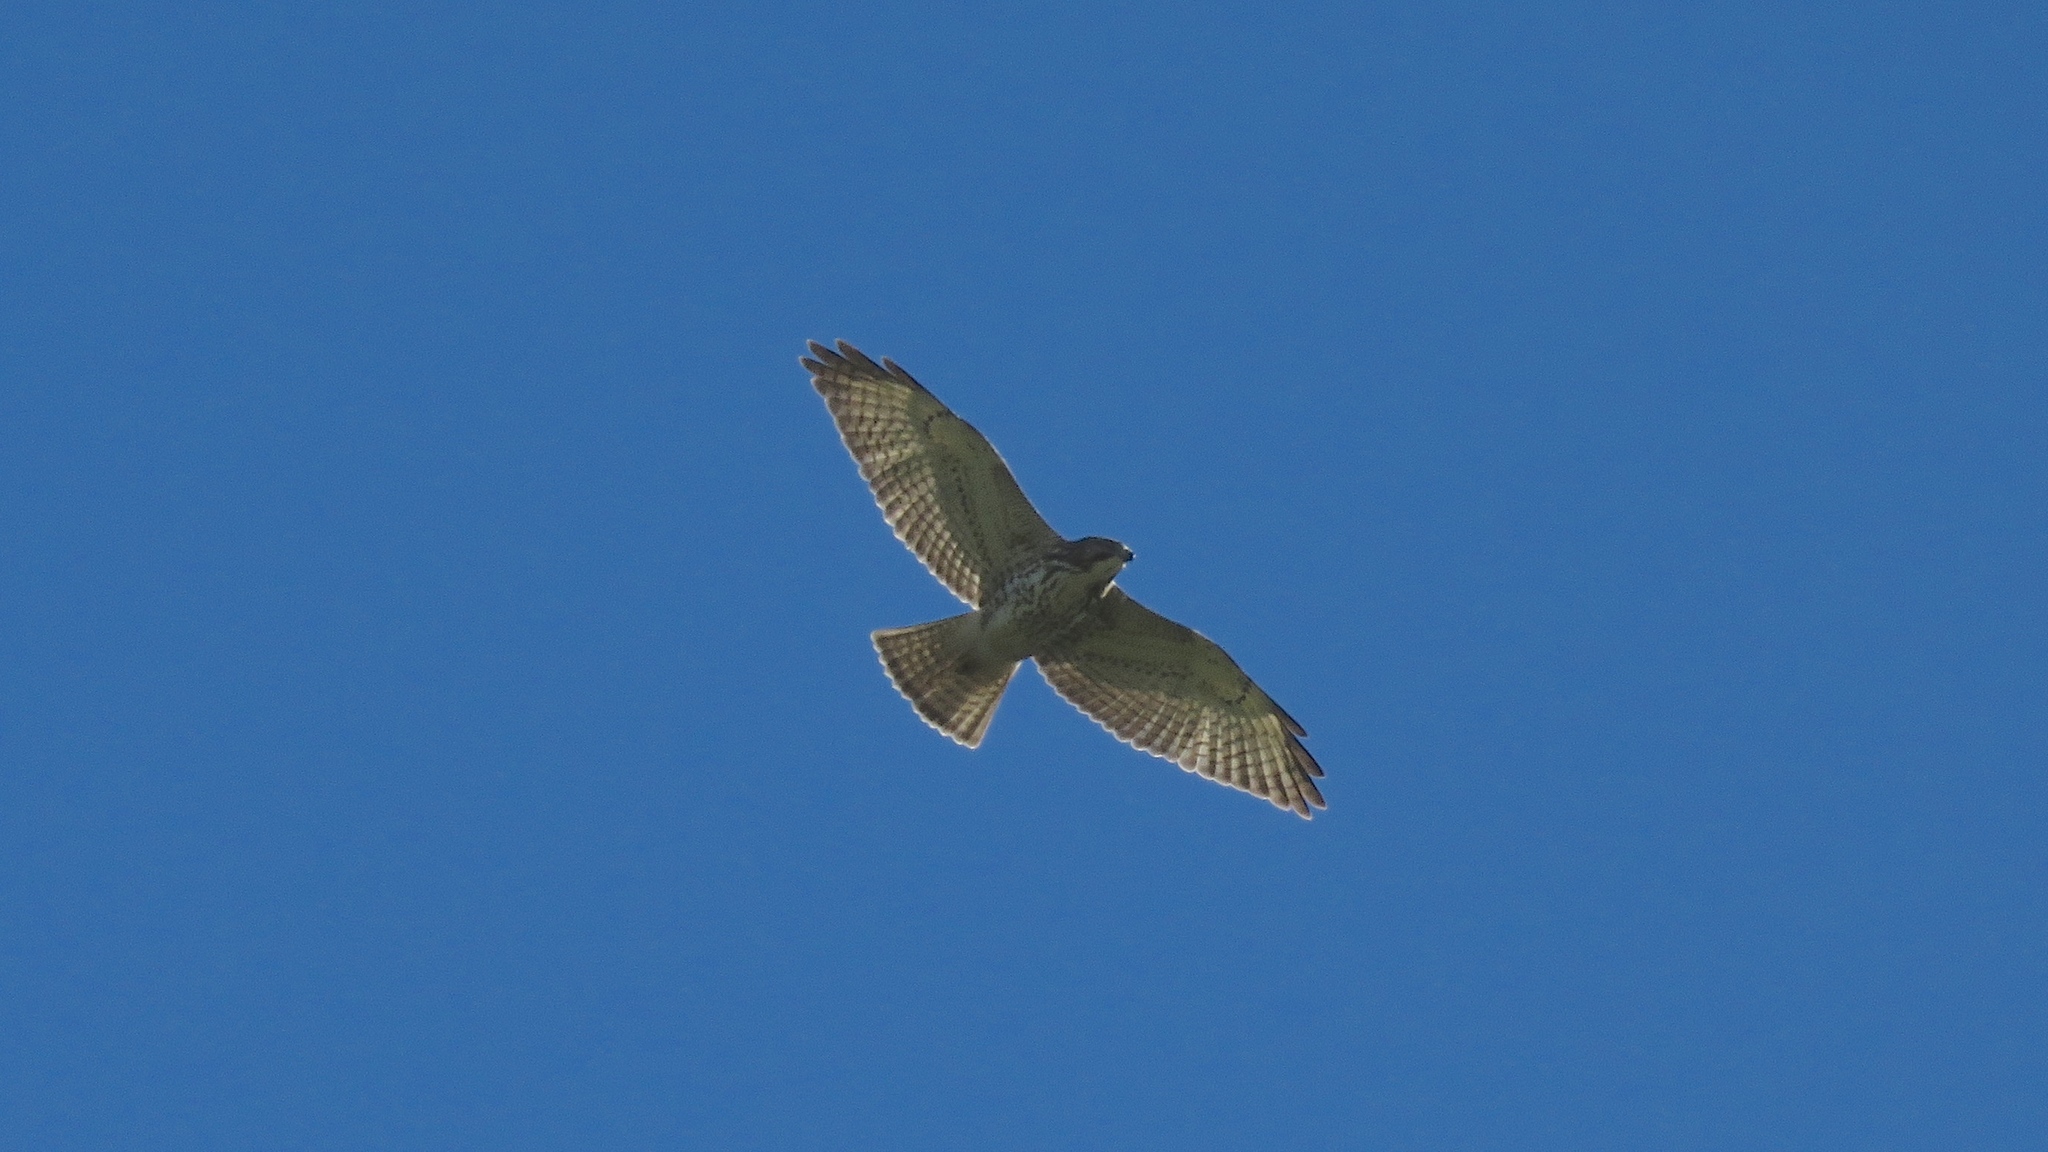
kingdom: Animalia
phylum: Chordata
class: Aves
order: Accipitriformes
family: Accipitridae
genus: Buteo
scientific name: Buteo platypterus
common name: Broad-winged hawk
